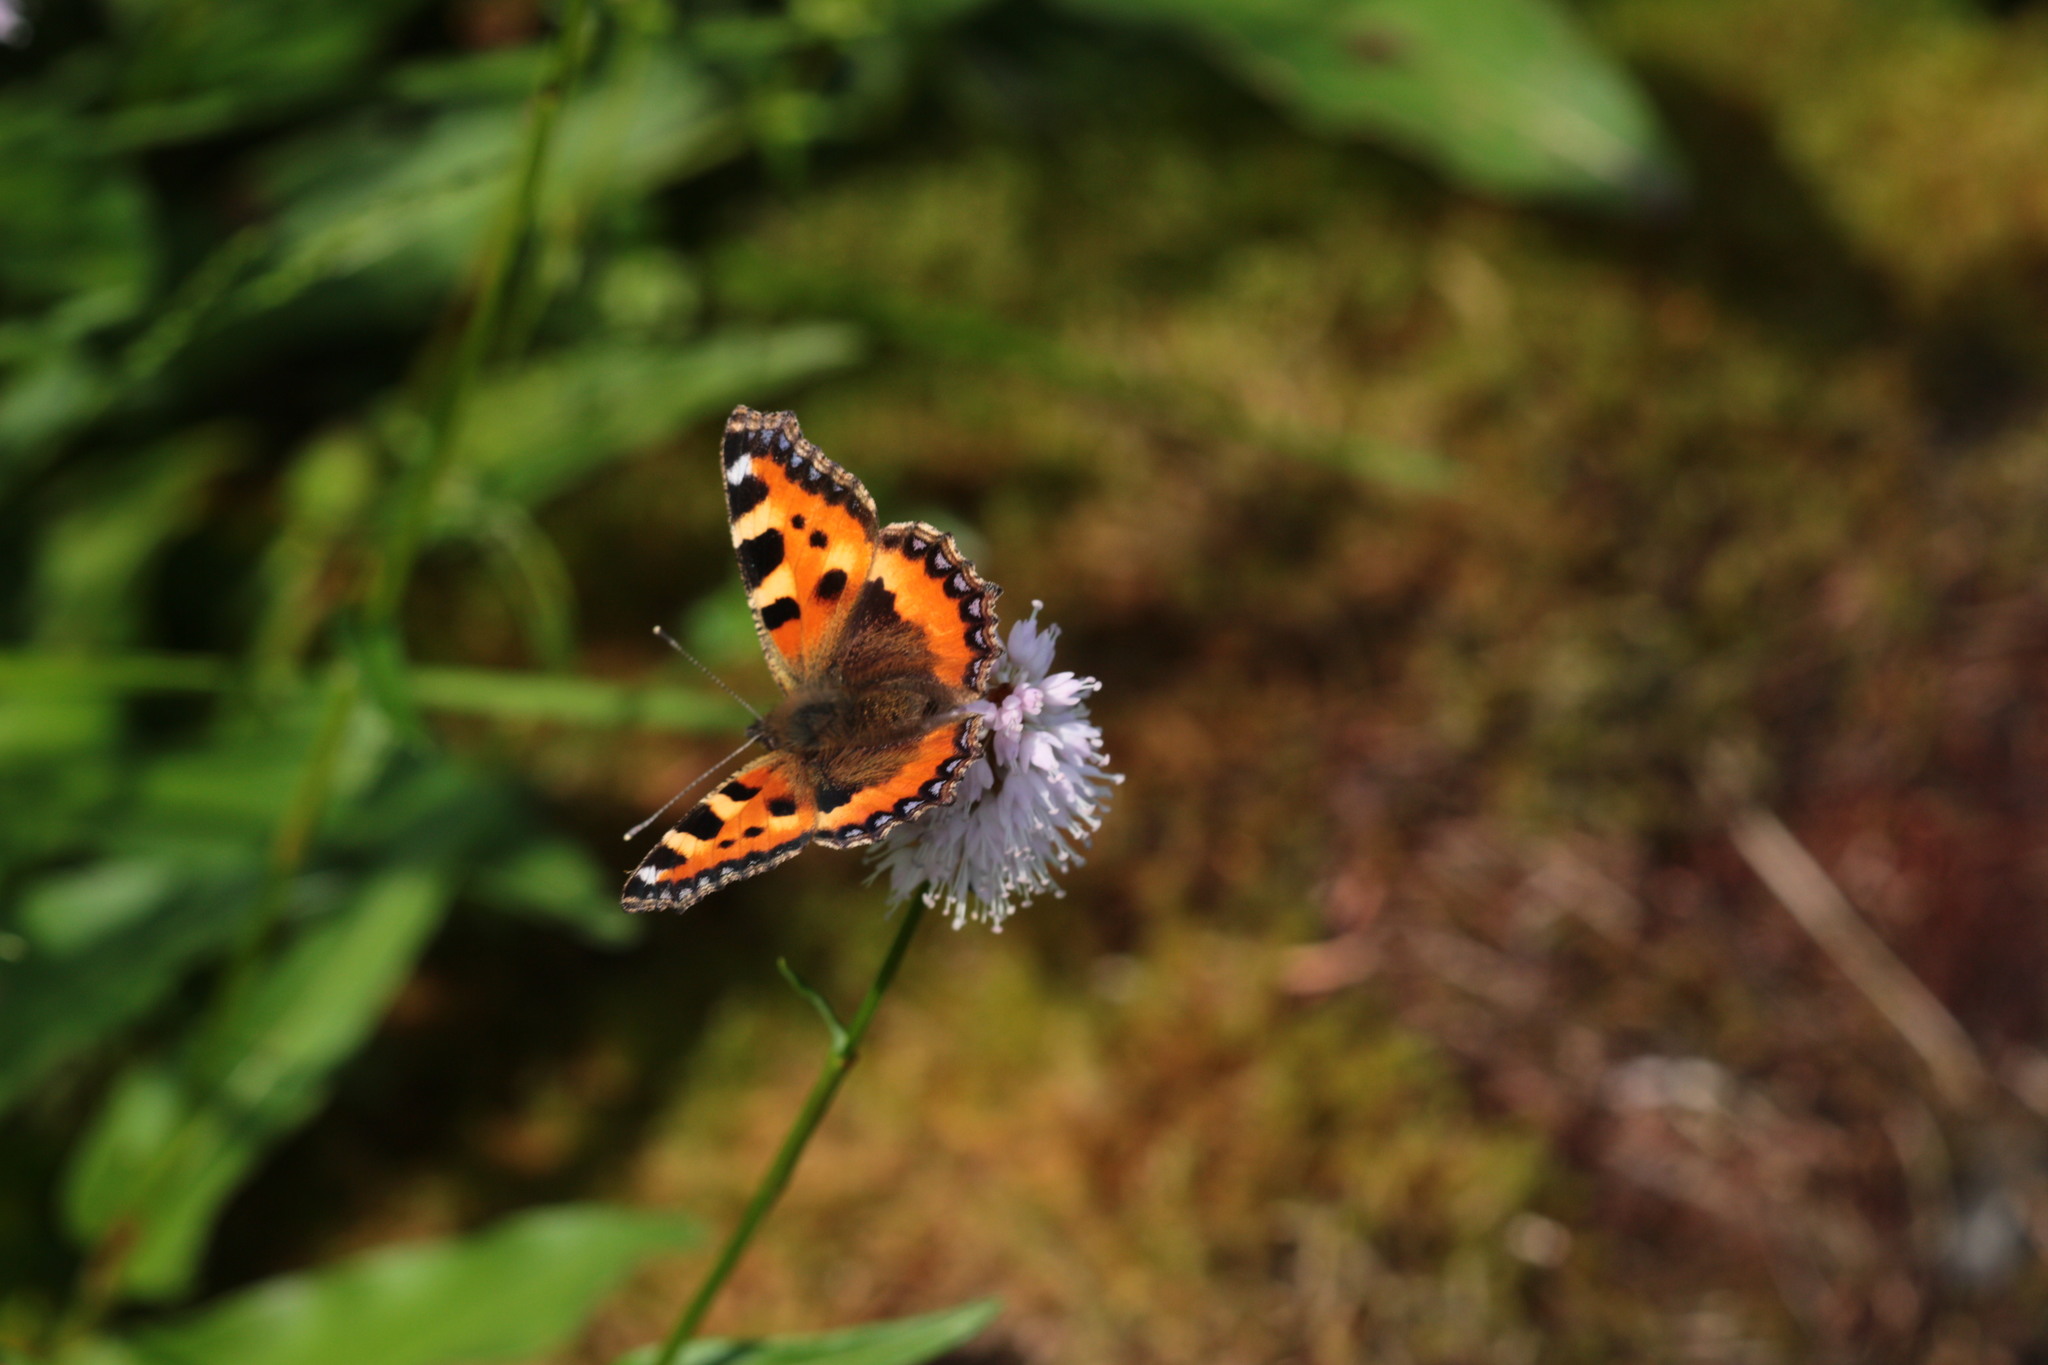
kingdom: Animalia
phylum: Arthropoda
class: Insecta
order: Lepidoptera
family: Nymphalidae
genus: Aglais
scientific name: Aglais urticae
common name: Small tortoiseshell
